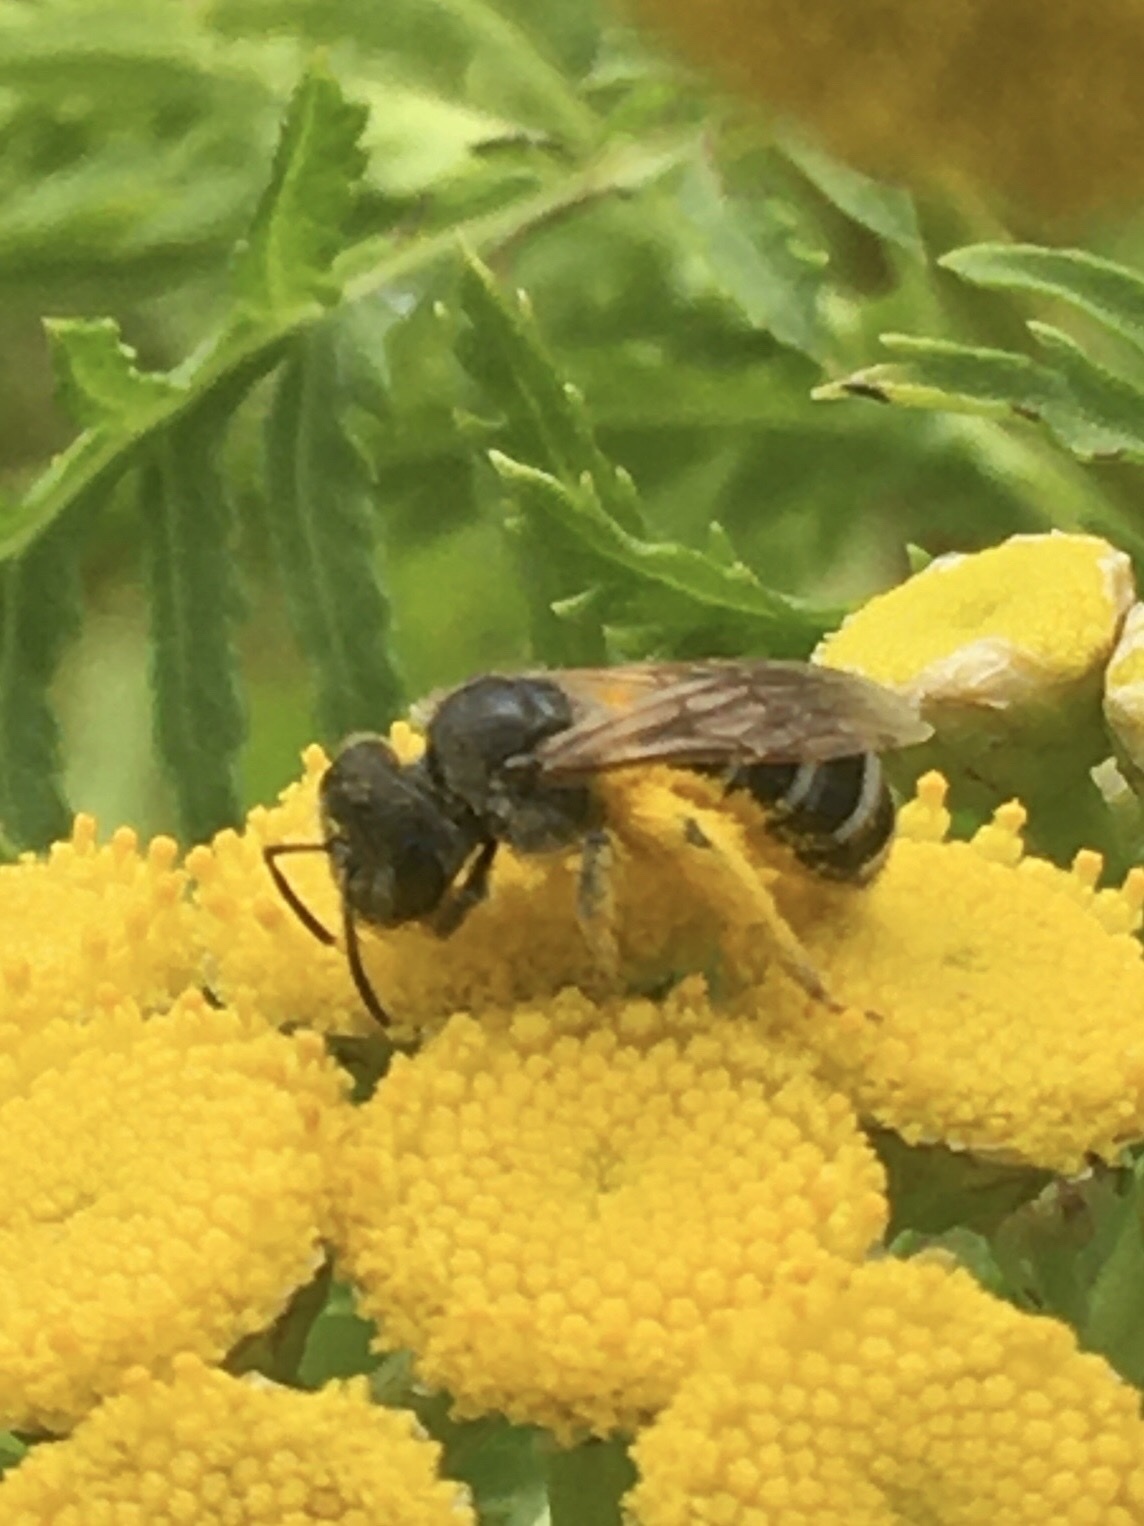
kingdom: Animalia
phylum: Arthropoda
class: Insecta
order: Hymenoptera
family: Halictidae
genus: Halictus
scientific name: Halictus ligatus
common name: Ligated furrow bee
